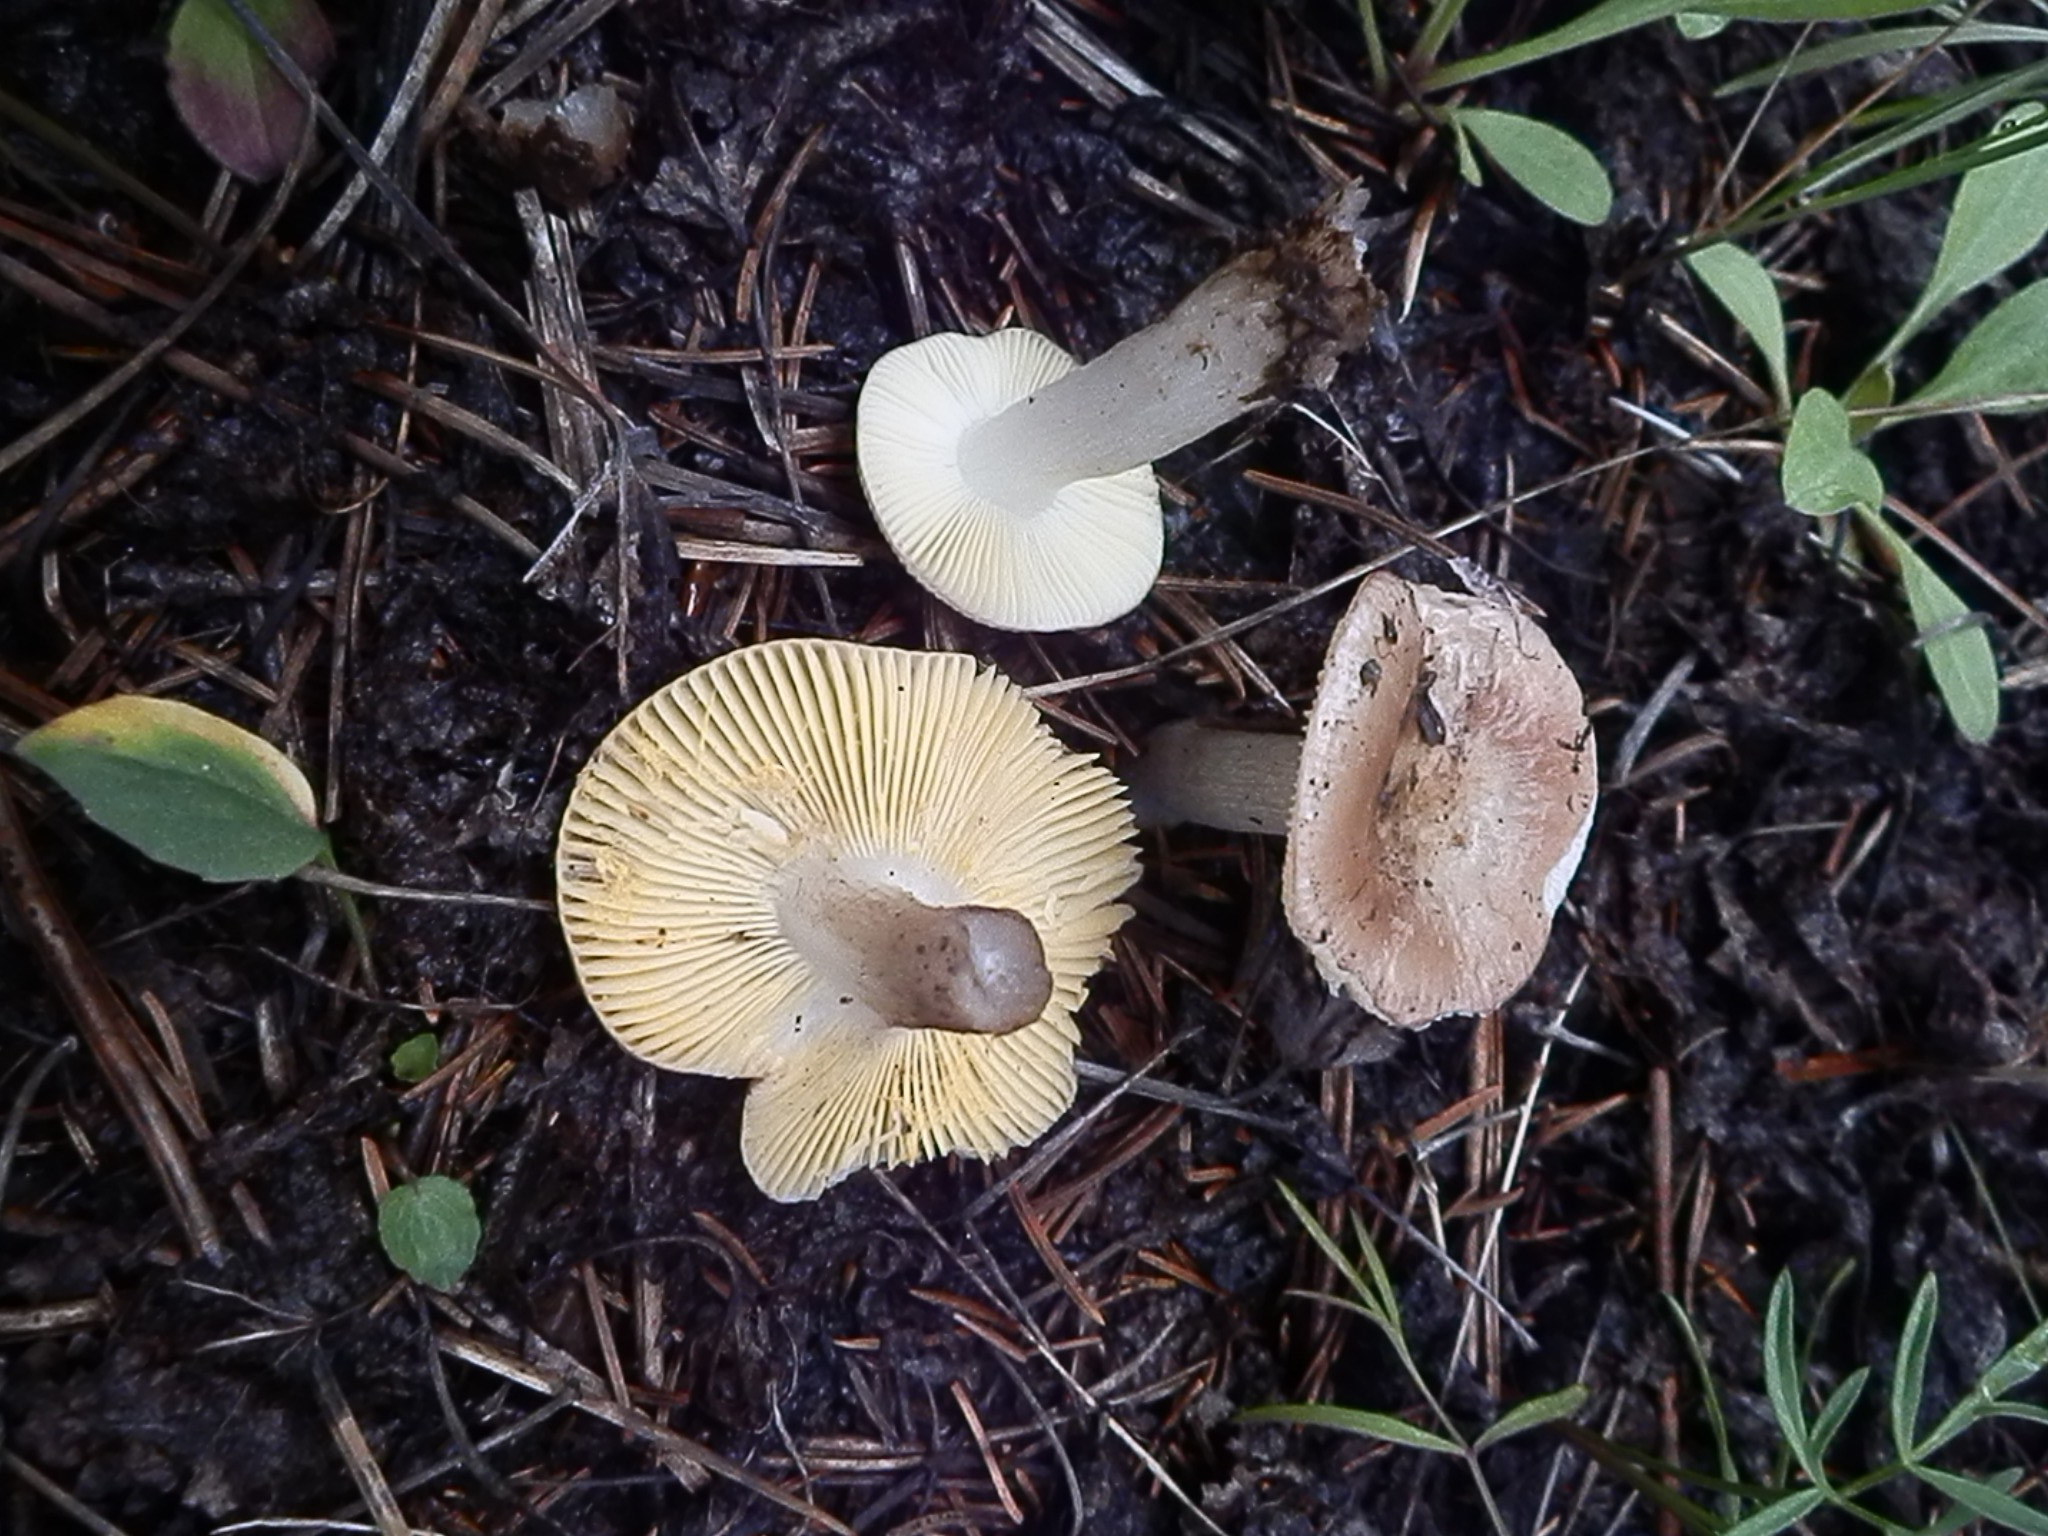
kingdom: Fungi
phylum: Basidiomycota
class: Agaricomycetes
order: Russulales
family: Russulaceae
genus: Russula
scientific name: Russula puellaris
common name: Yellowing brittlegill
